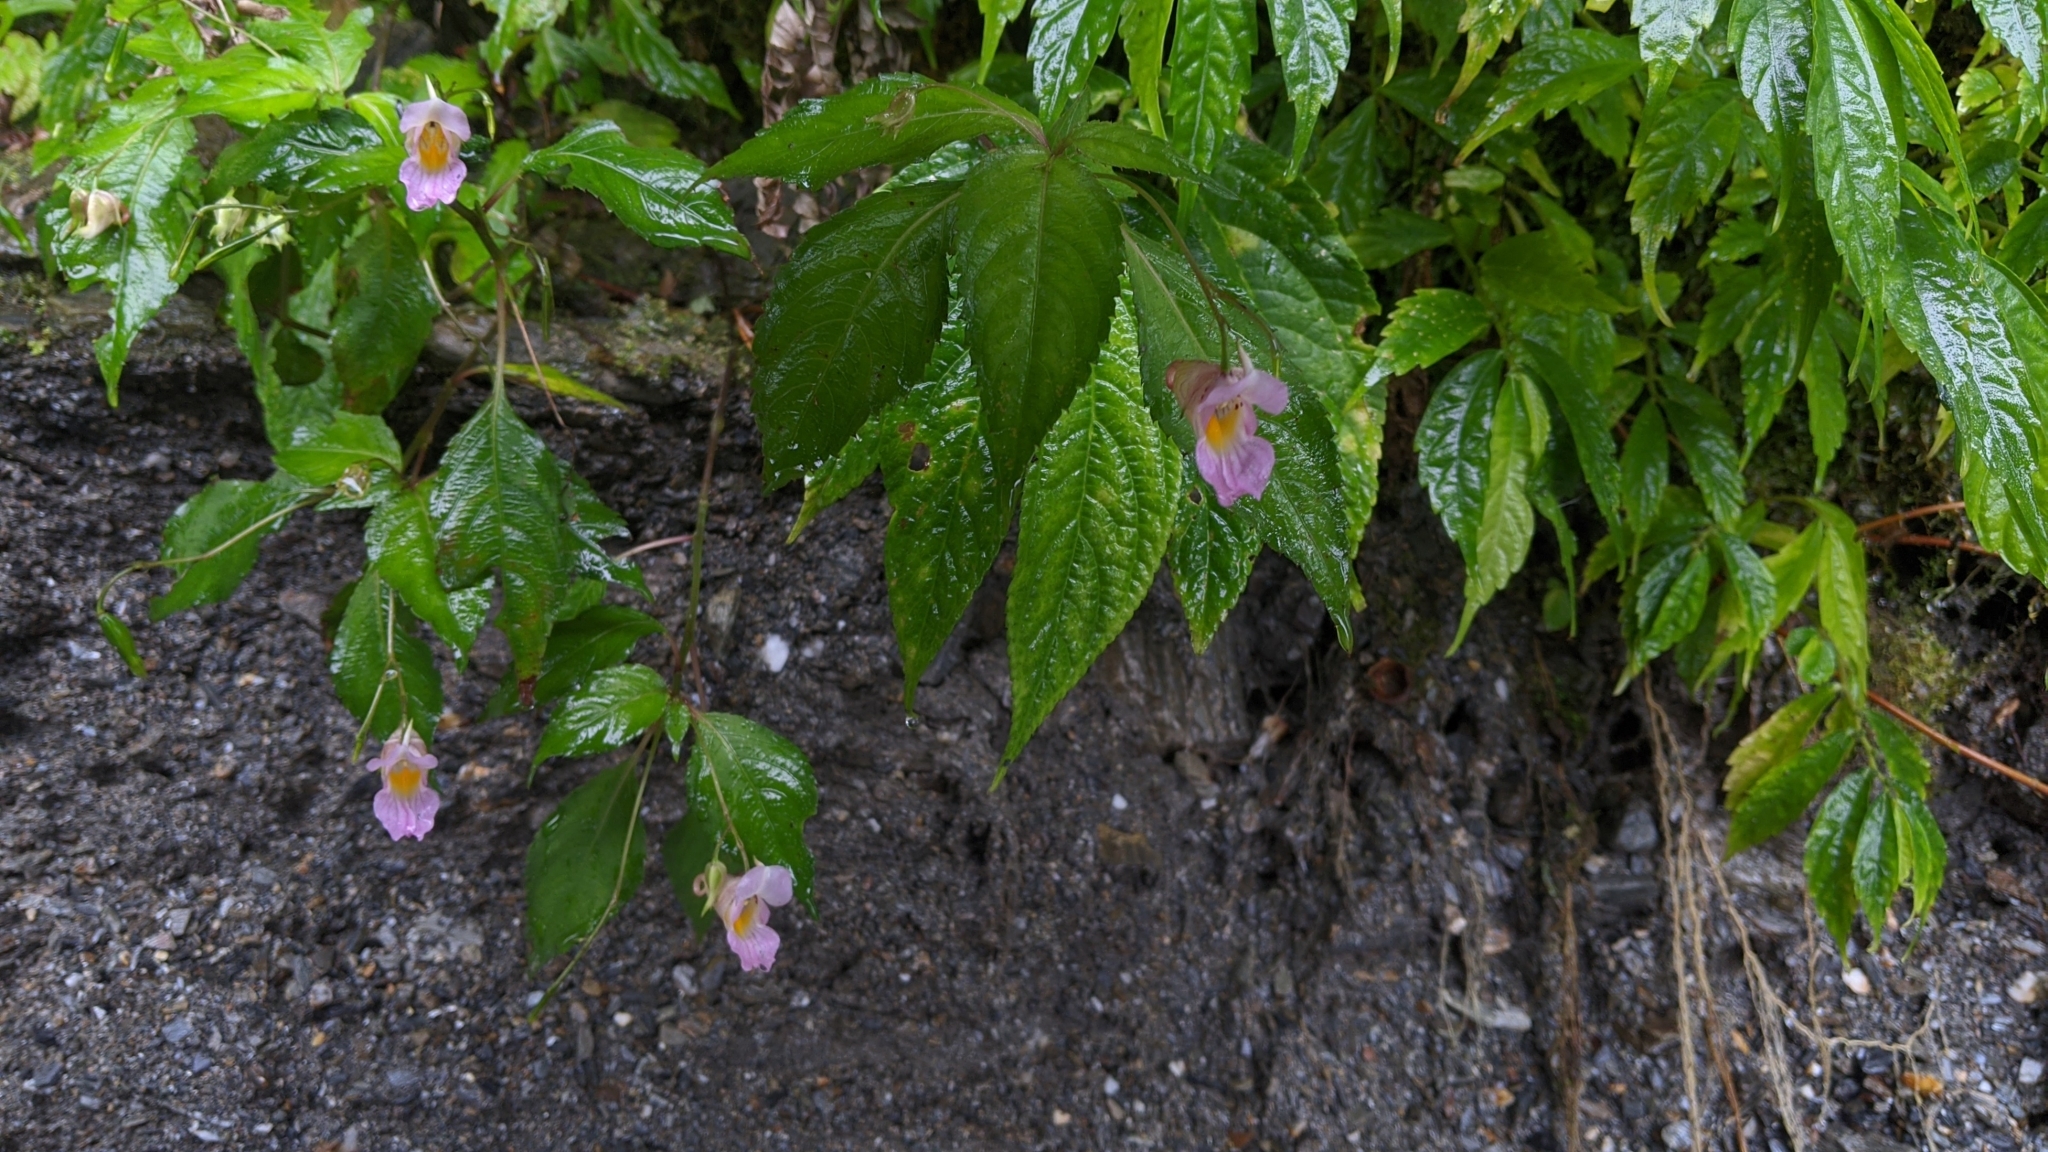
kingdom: Plantae
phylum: Tracheophyta
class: Magnoliopsida
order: Ericales
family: Balsaminaceae
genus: Impatiens
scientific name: Impatiens uniflora
